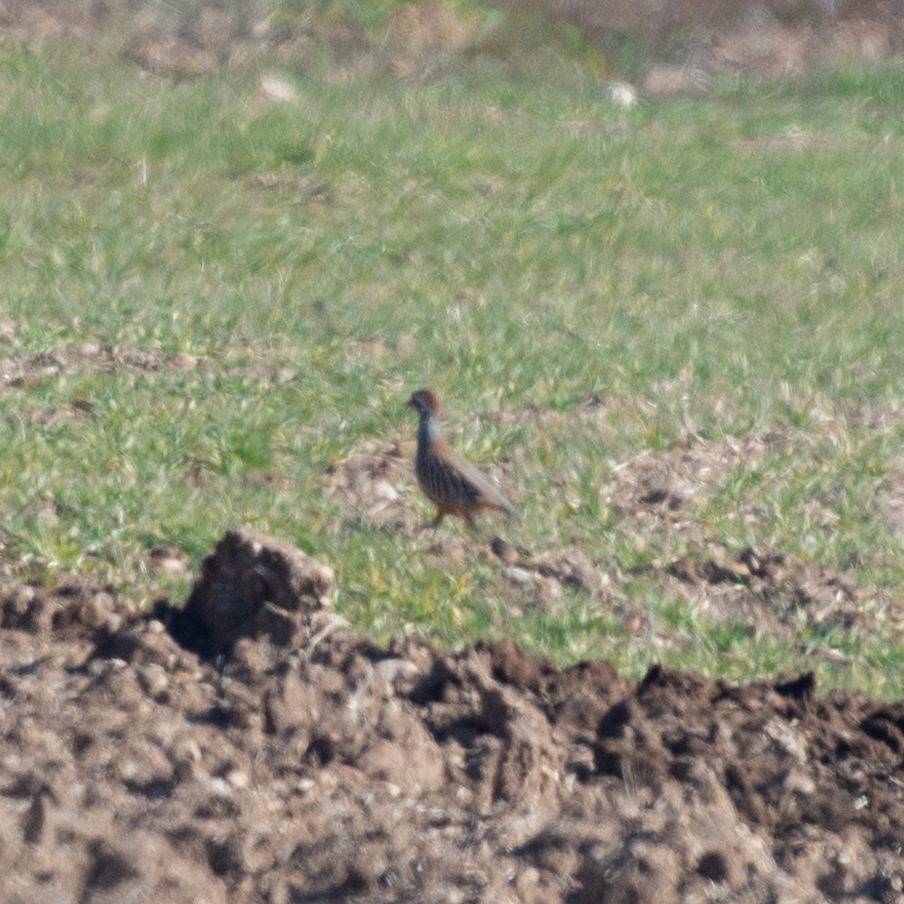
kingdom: Animalia
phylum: Chordata
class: Aves
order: Galliformes
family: Phasianidae
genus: Alectoris
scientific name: Alectoris rufa
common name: Red-legged partridge
